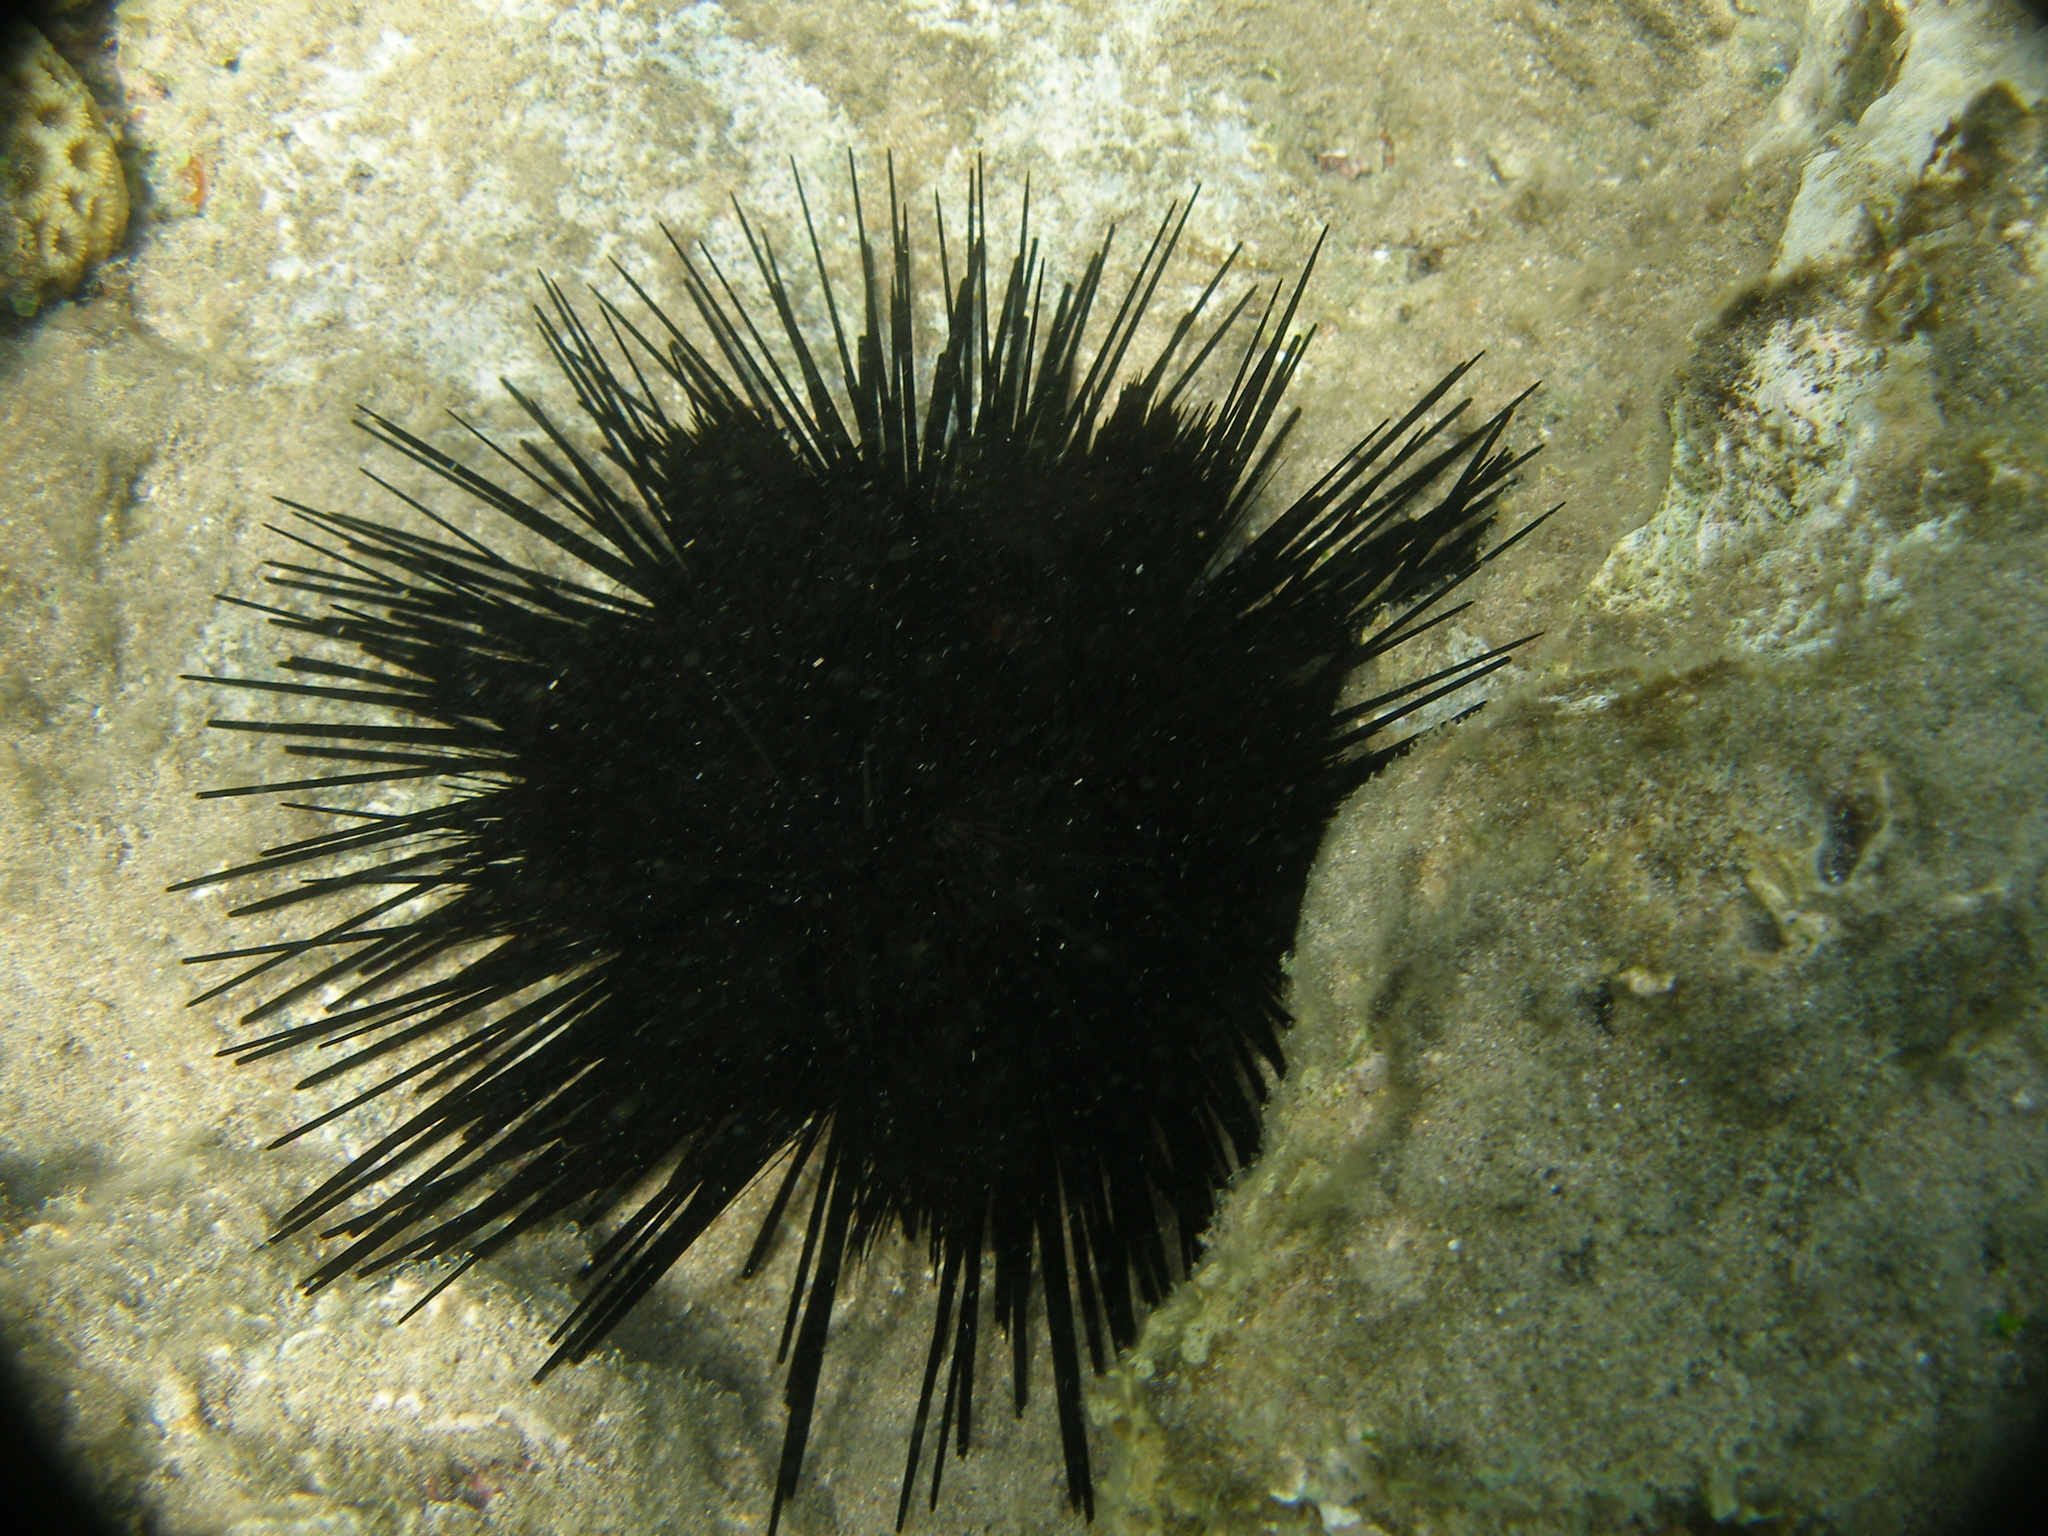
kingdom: Animalia
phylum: Echinodermata
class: Echinoidea
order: Diadematoida
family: Diadematidae
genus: Echinothrix
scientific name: Echinothrix calamaris
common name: Banded sea urchin
